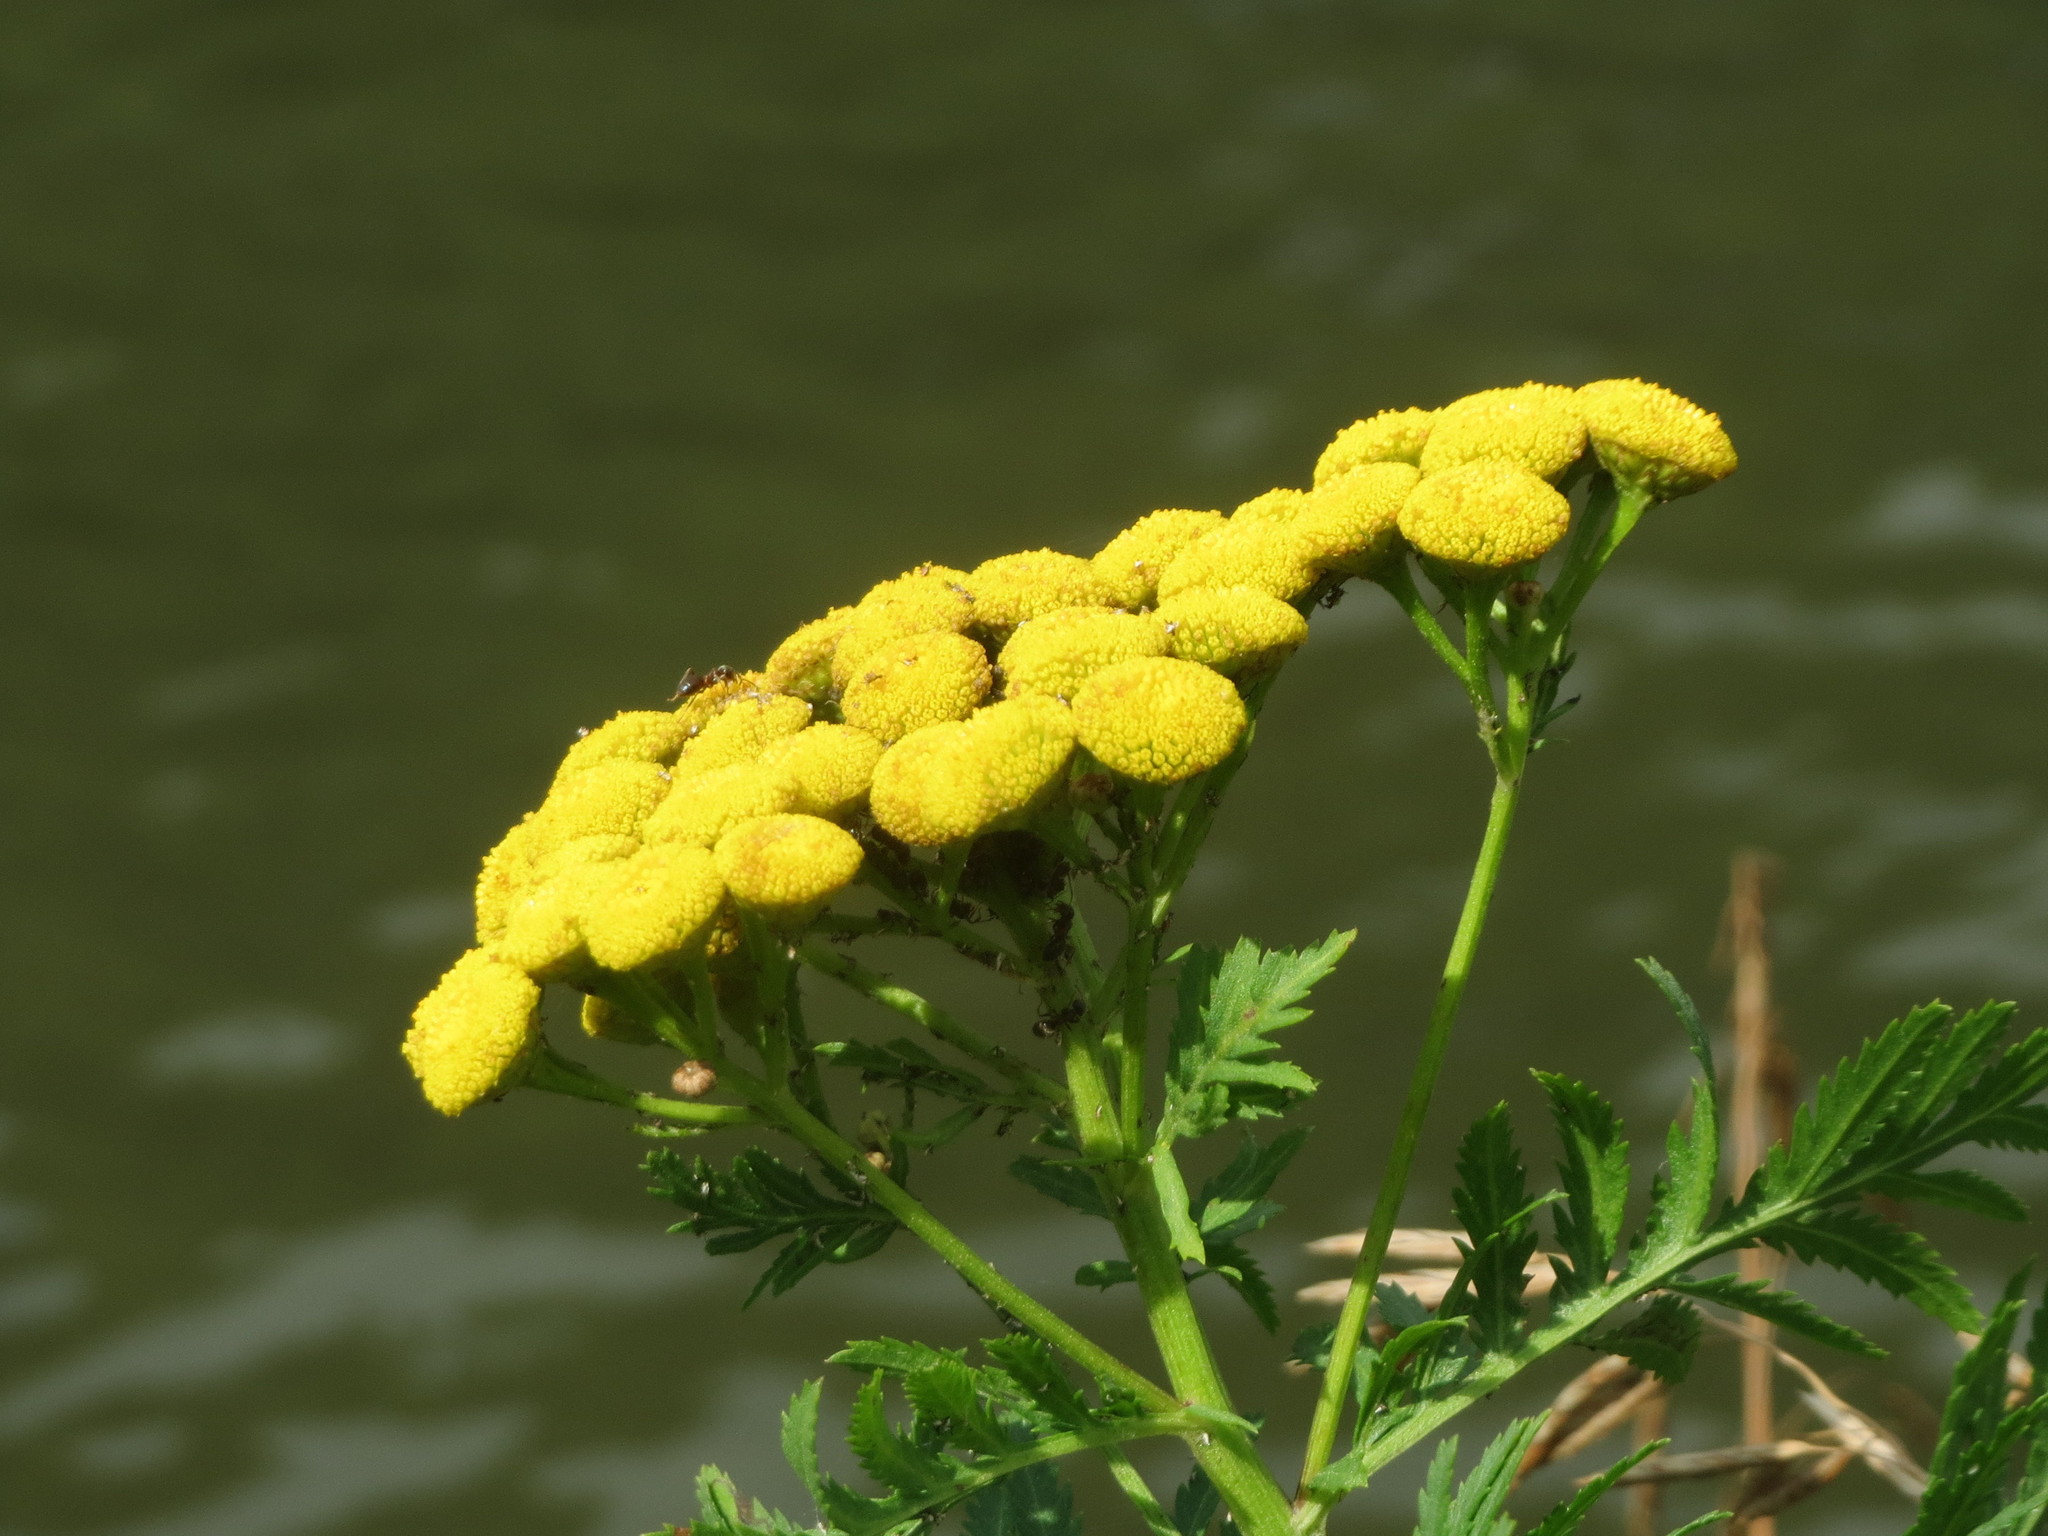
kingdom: Plantae
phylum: Tracheophyta
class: Magnoliopsida
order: Asterales
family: Asteraceae
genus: Tanacetum
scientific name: Tanacetum vulgare
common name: Common tansy
